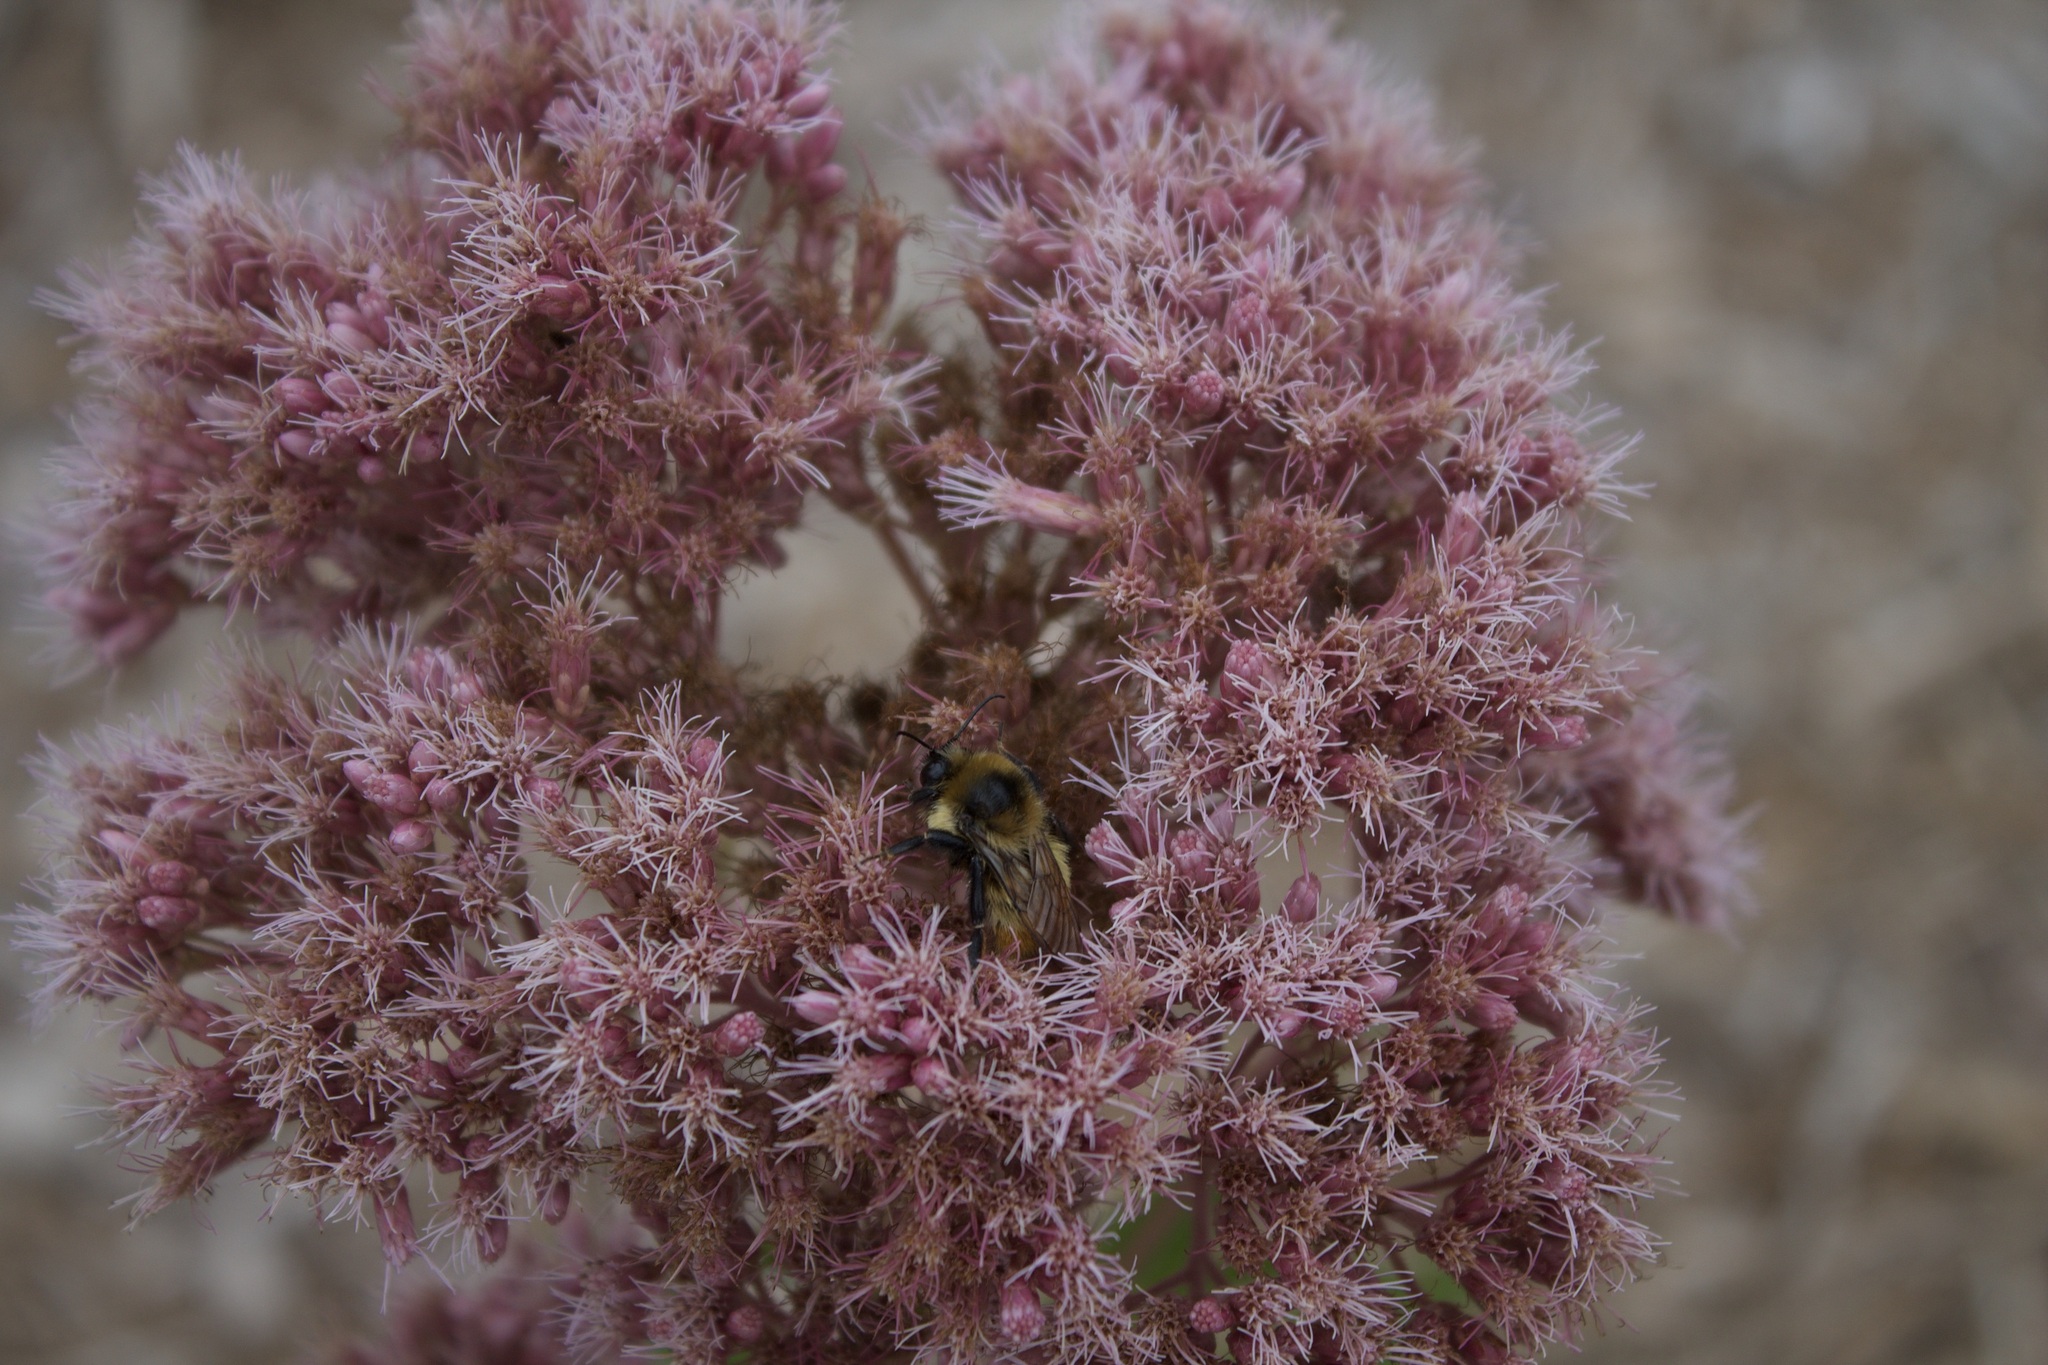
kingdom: Animalia
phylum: Arthropoda
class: Insecta
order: Hymenoptera
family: Apidae
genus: Bombus
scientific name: Bombus rufocinctus
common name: Red-belted bumble bee
